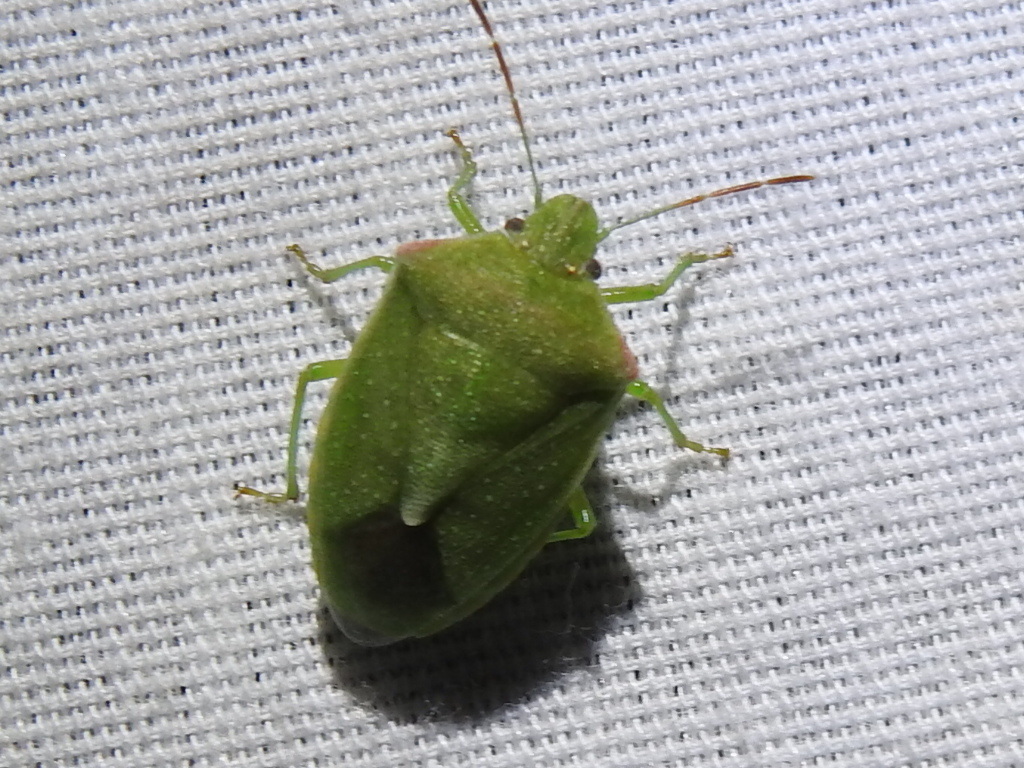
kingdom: Animalia
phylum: Arthropoda
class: Insecta
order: Hemiptera
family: Pentatomidae
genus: Thyanta
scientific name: Thyanta accerra
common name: Stink bug
